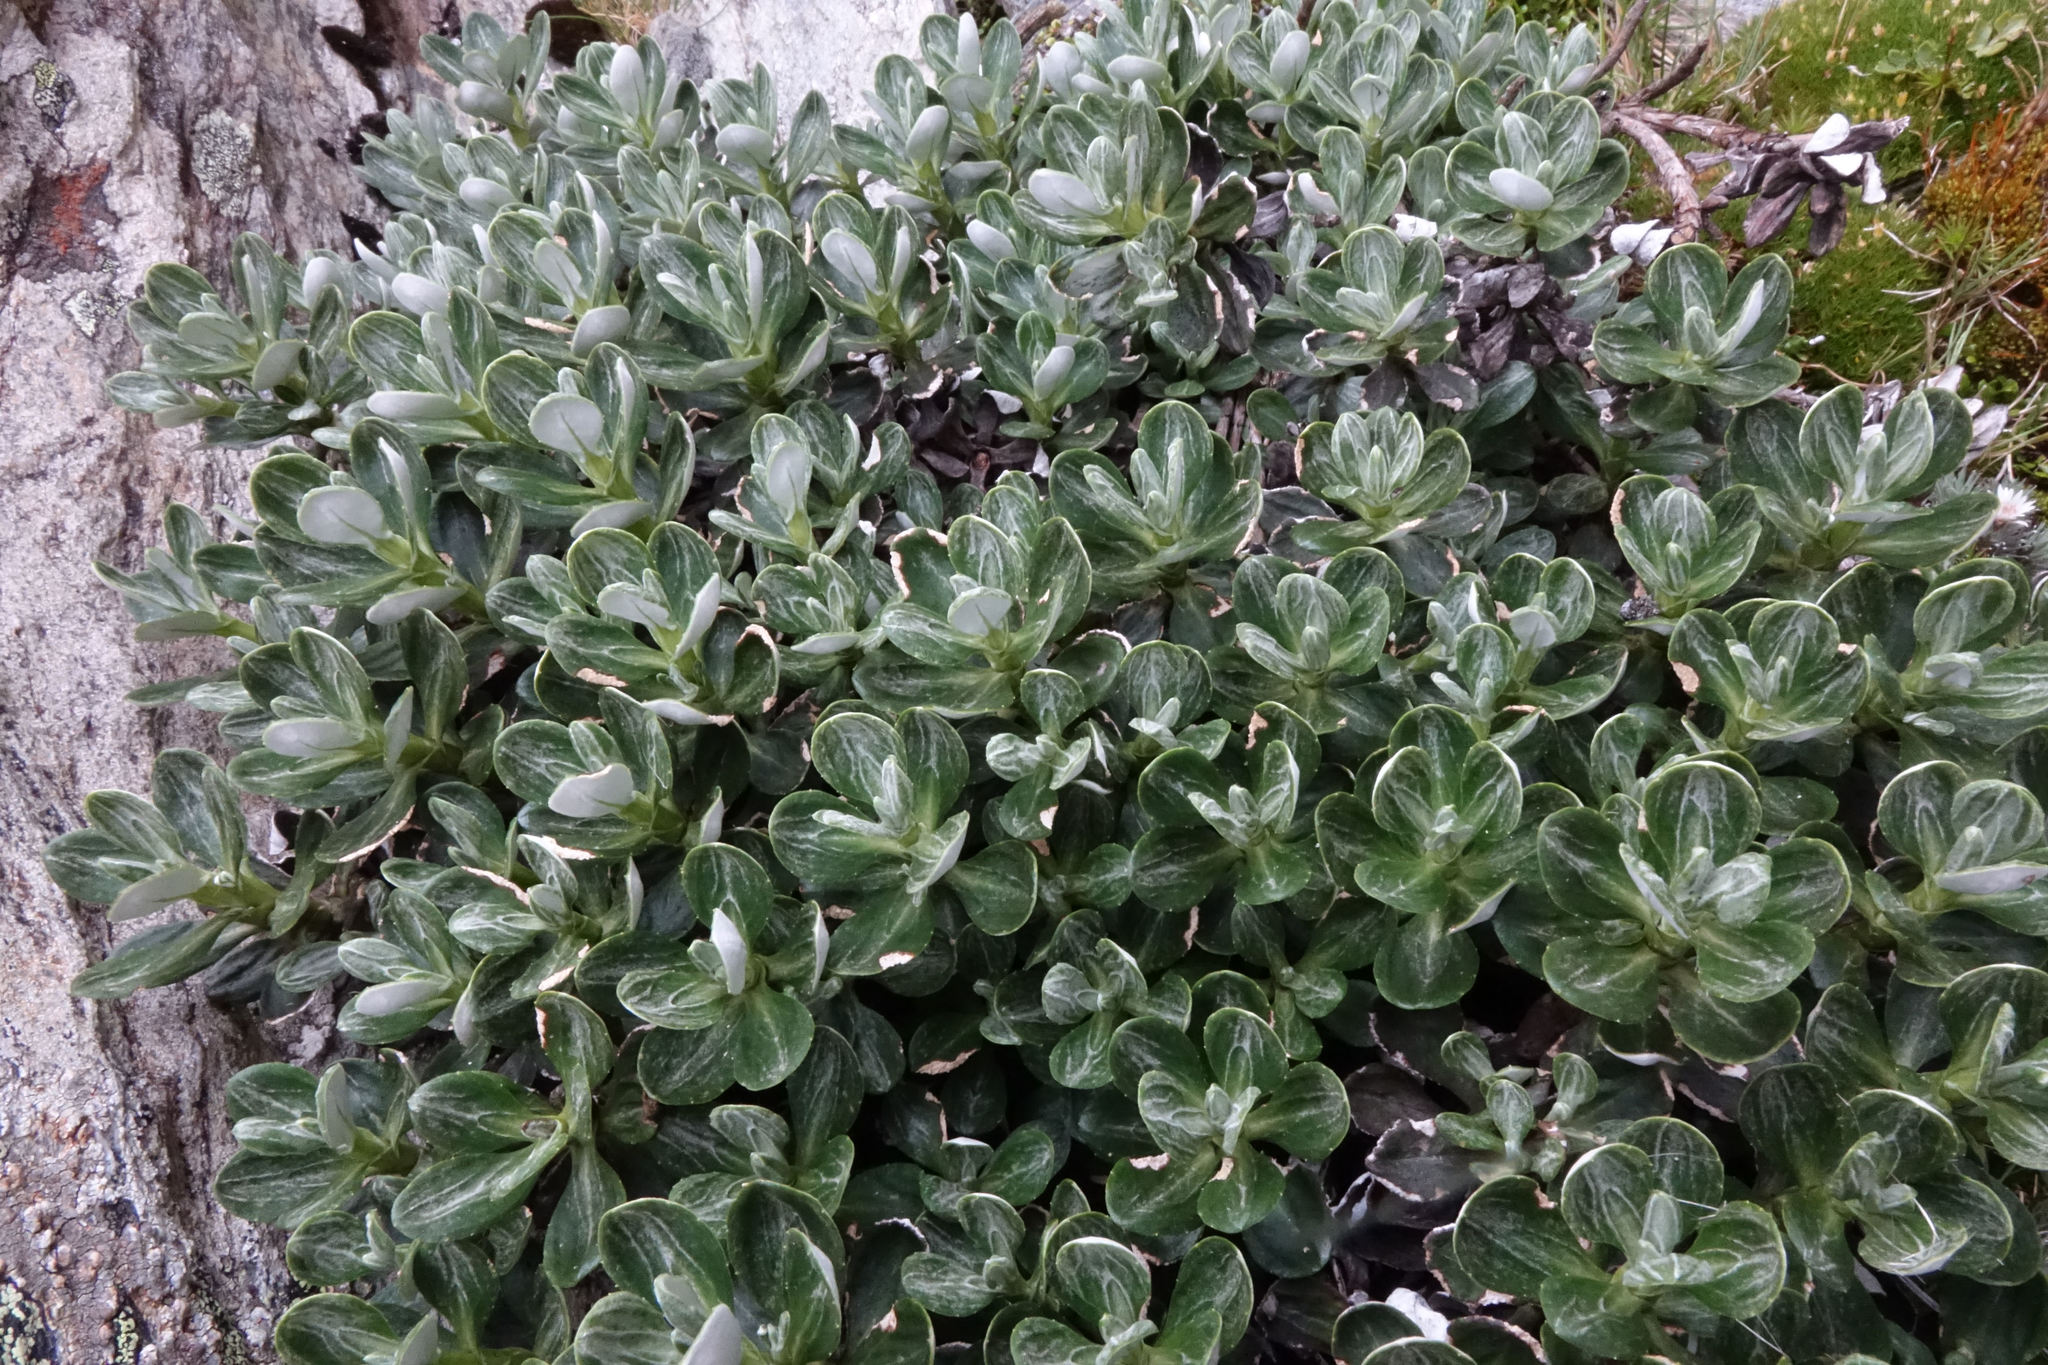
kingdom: Plantae
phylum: Tracheophyta
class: Magnoliopsida
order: Asterales
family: Asteraceae
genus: Celmisia
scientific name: Celmisia brevifolia
